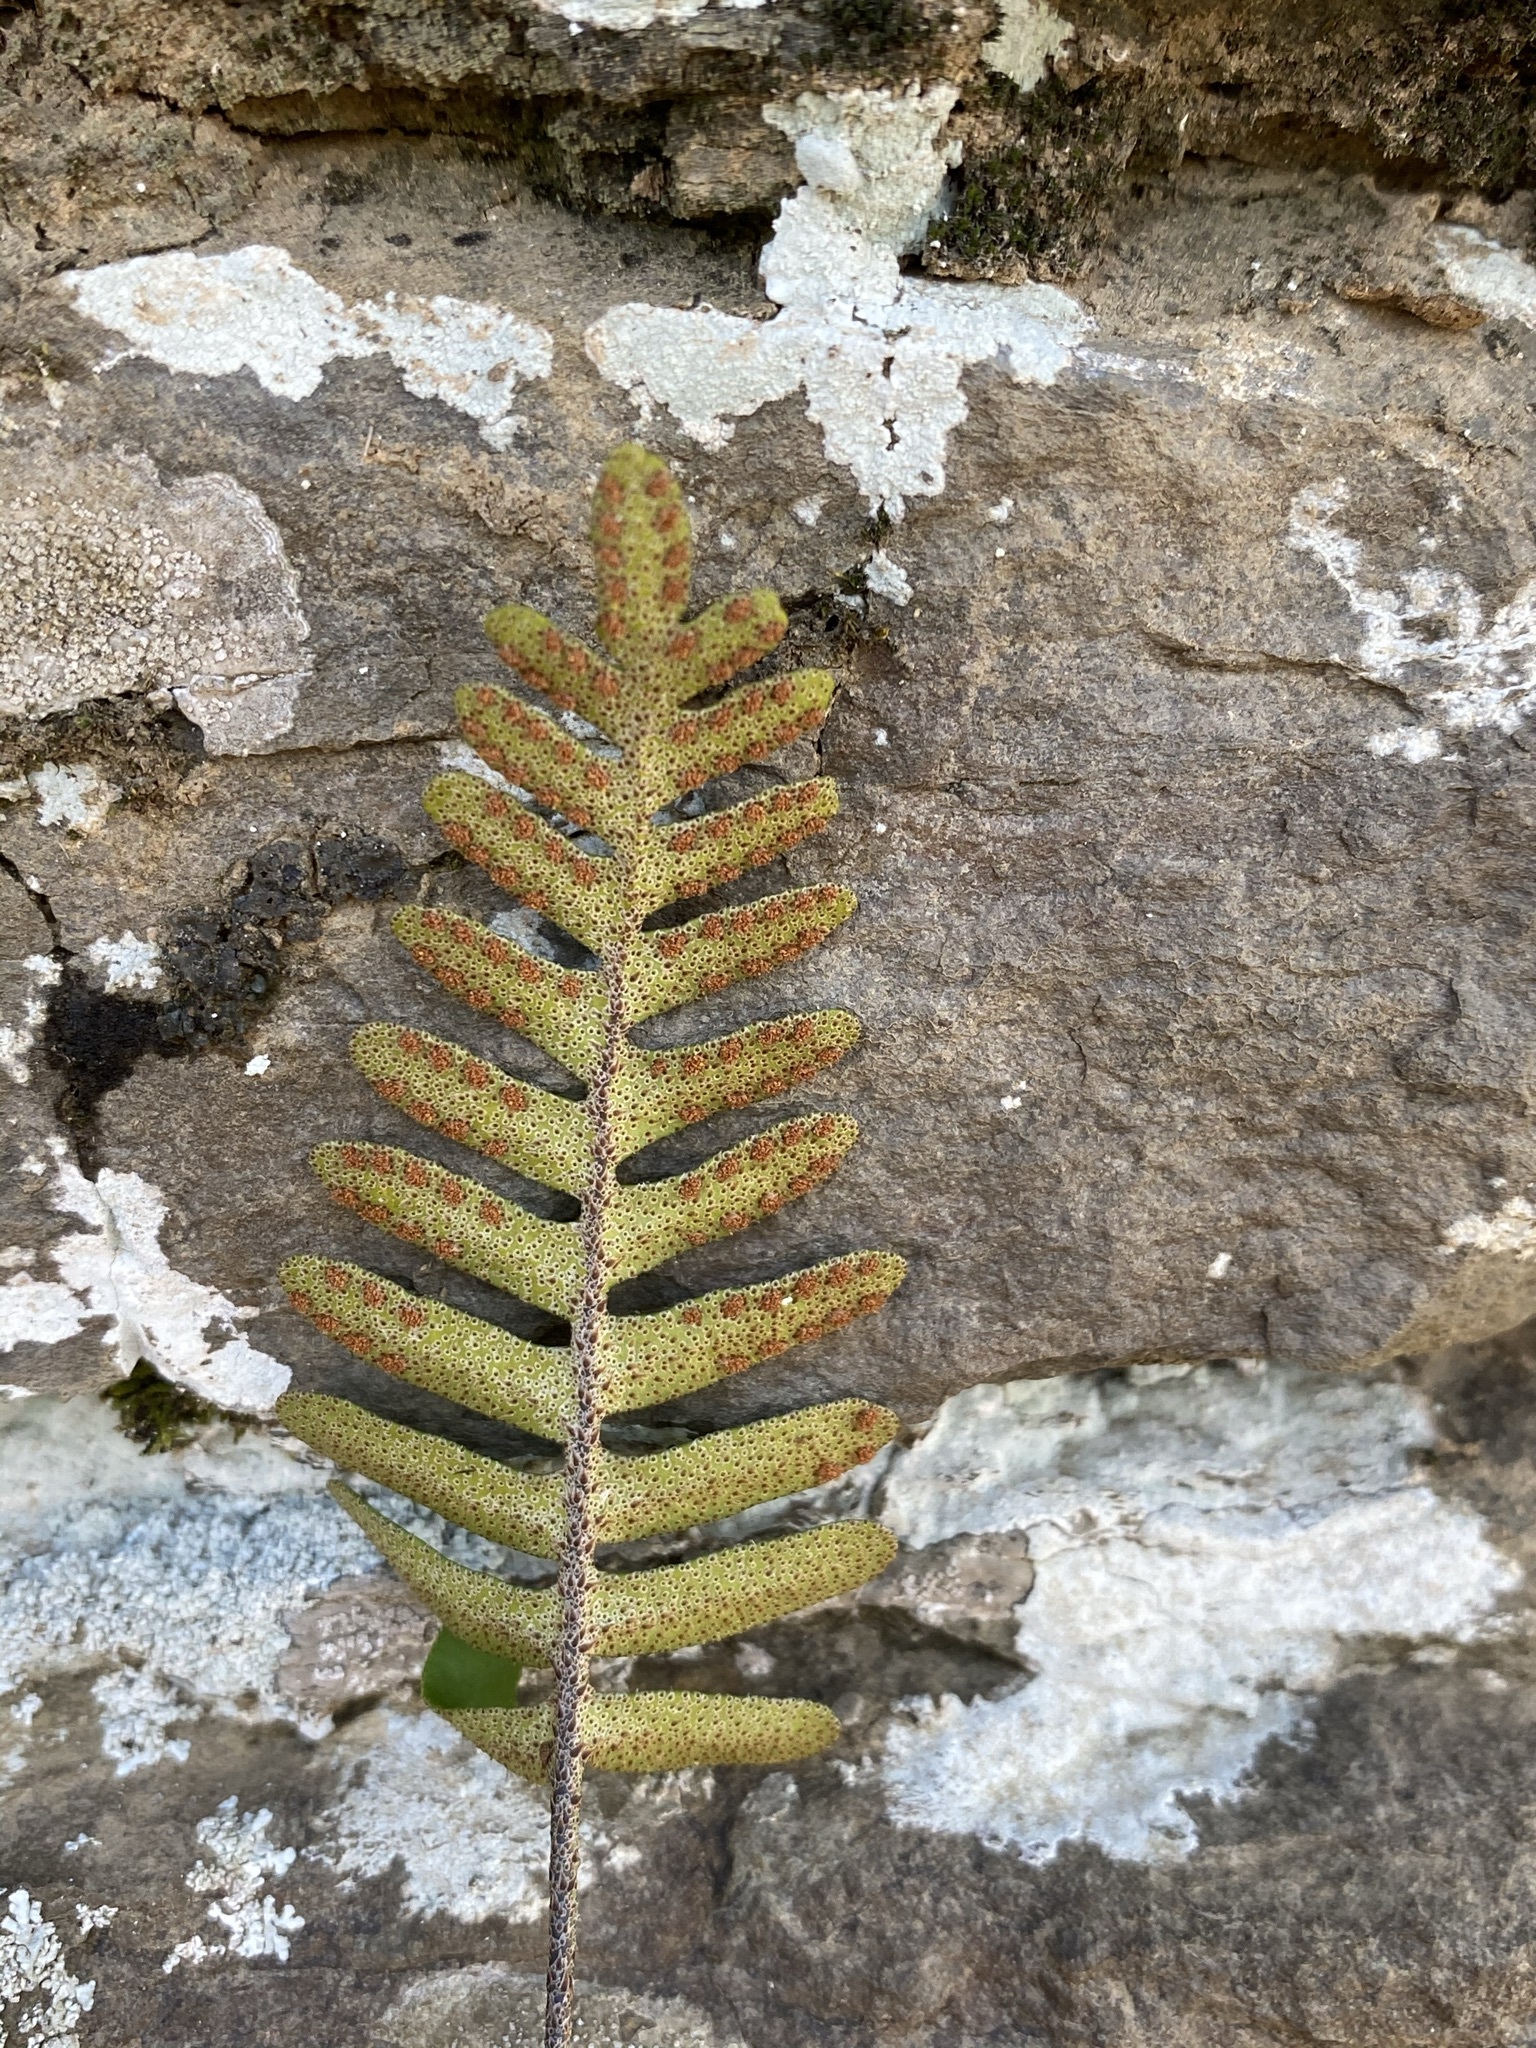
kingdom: Plantae
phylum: Tracheophyta
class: Polypodiopsida
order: Polypodiales
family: Polypodiaceae
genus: Pleopeltis
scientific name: Pleopeltis michauxiana
